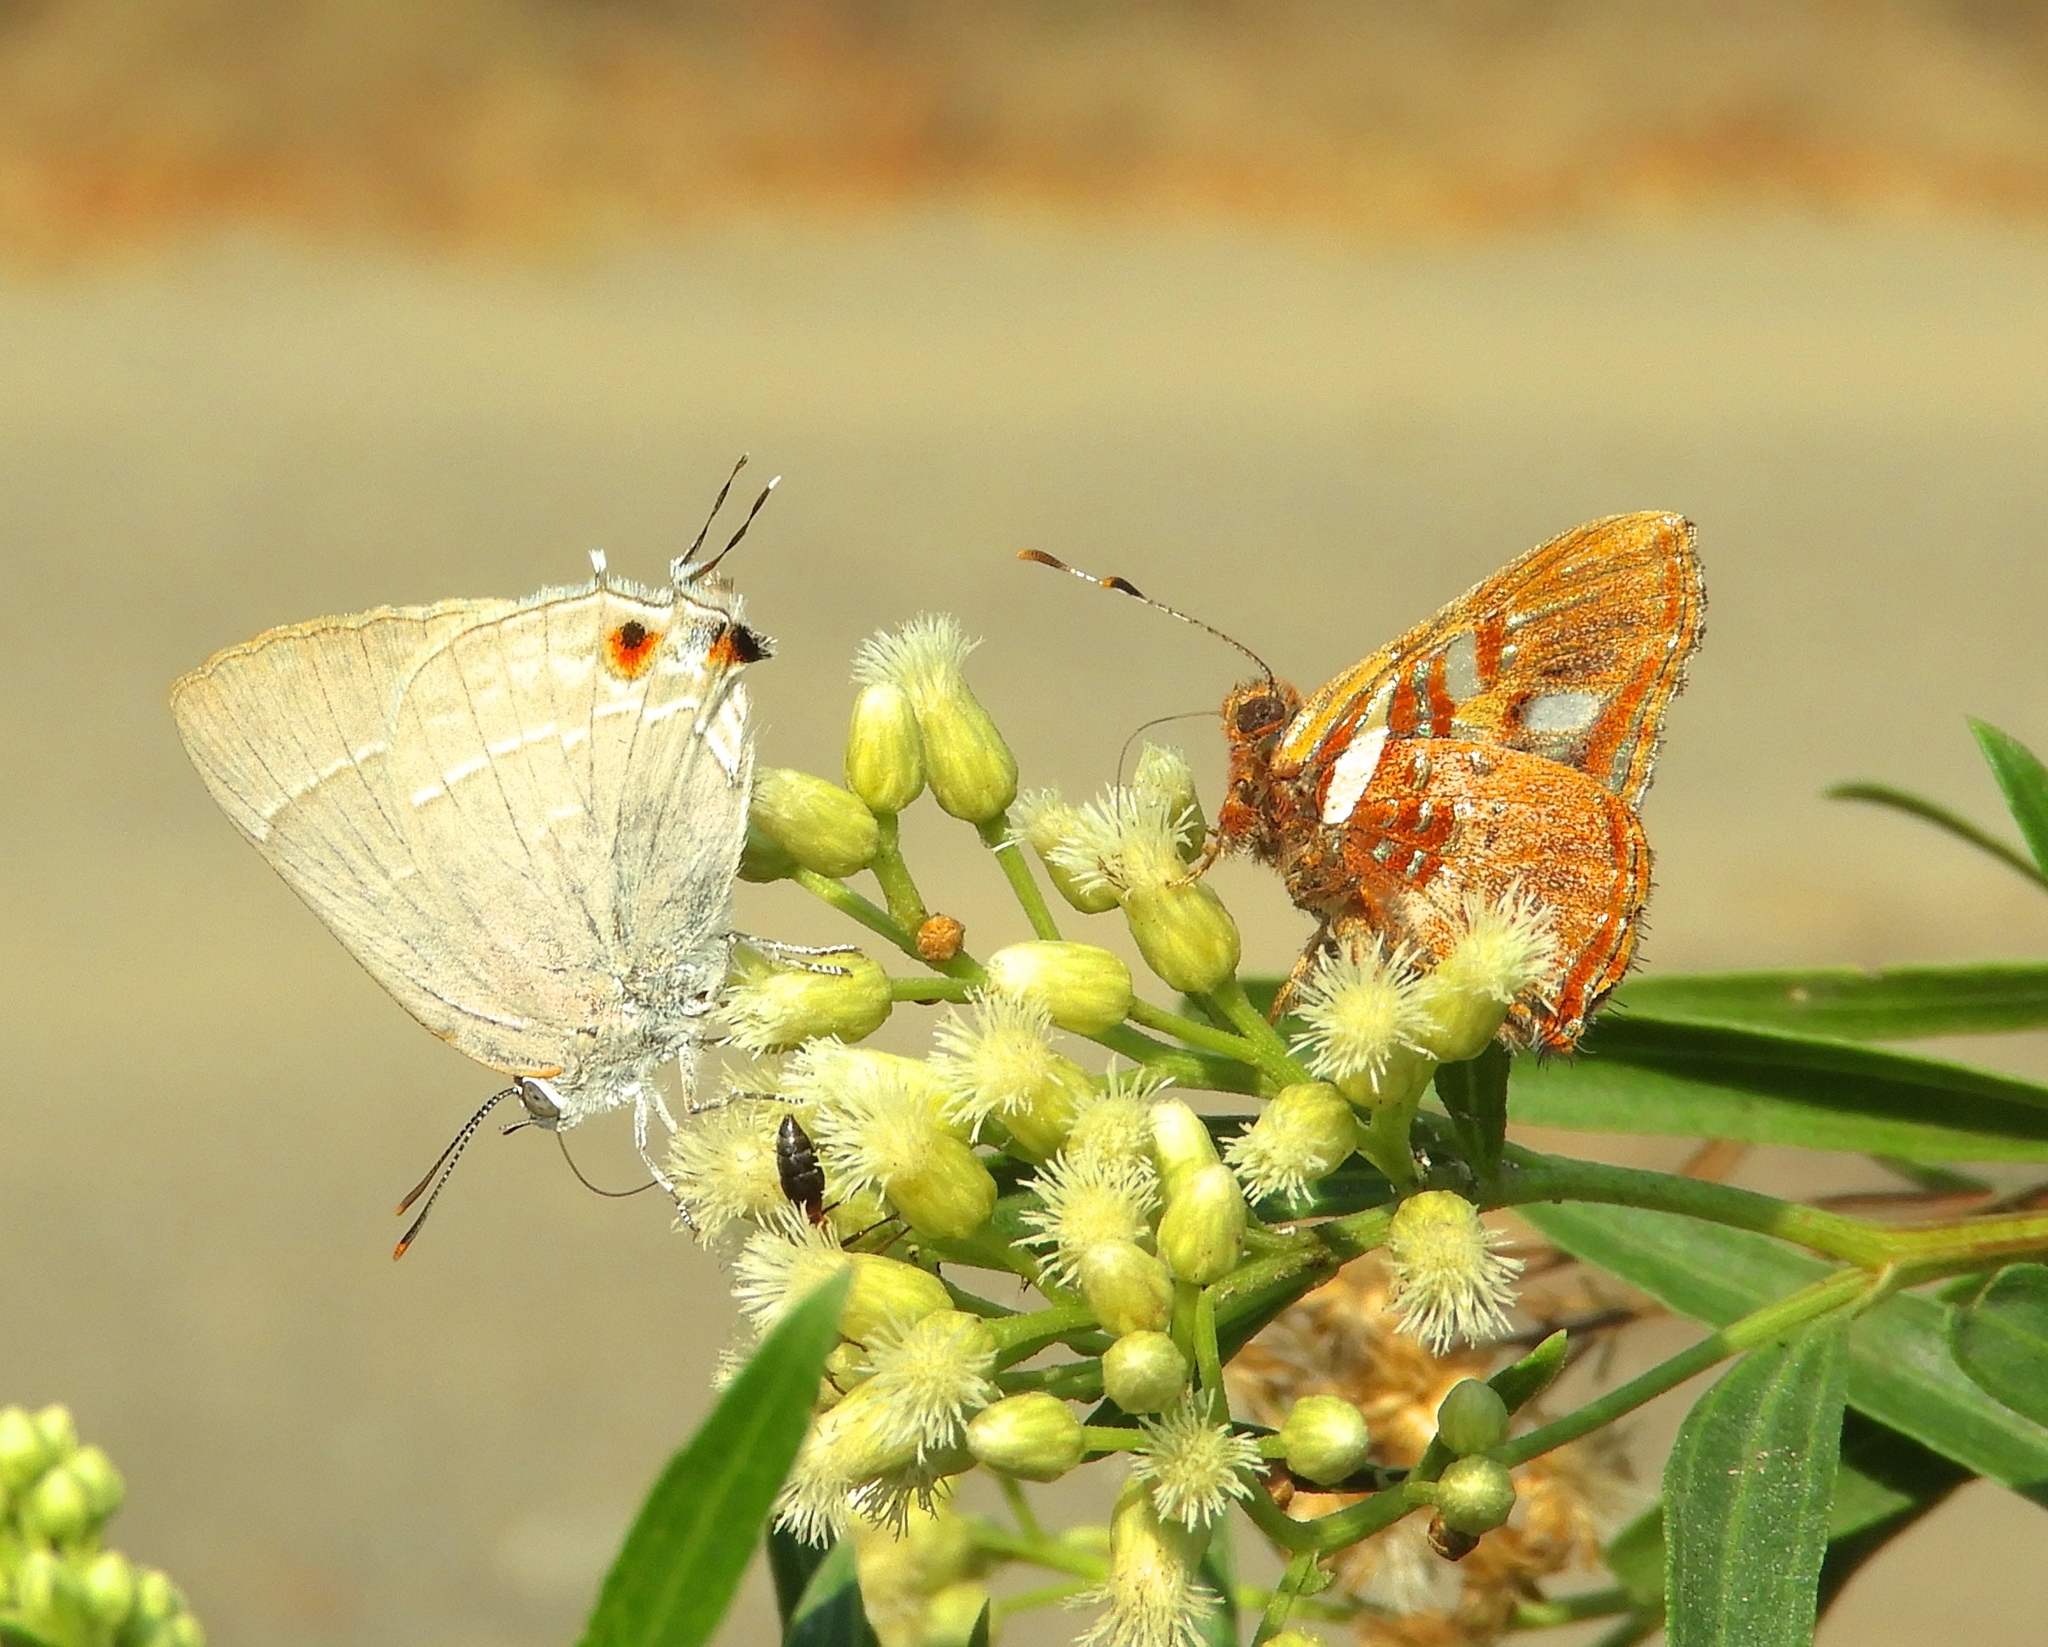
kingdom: Animalia
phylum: Arthropoda
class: Insecta
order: Lepidoptera
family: Lycaenidae
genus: Thecla
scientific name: Thecla marius
